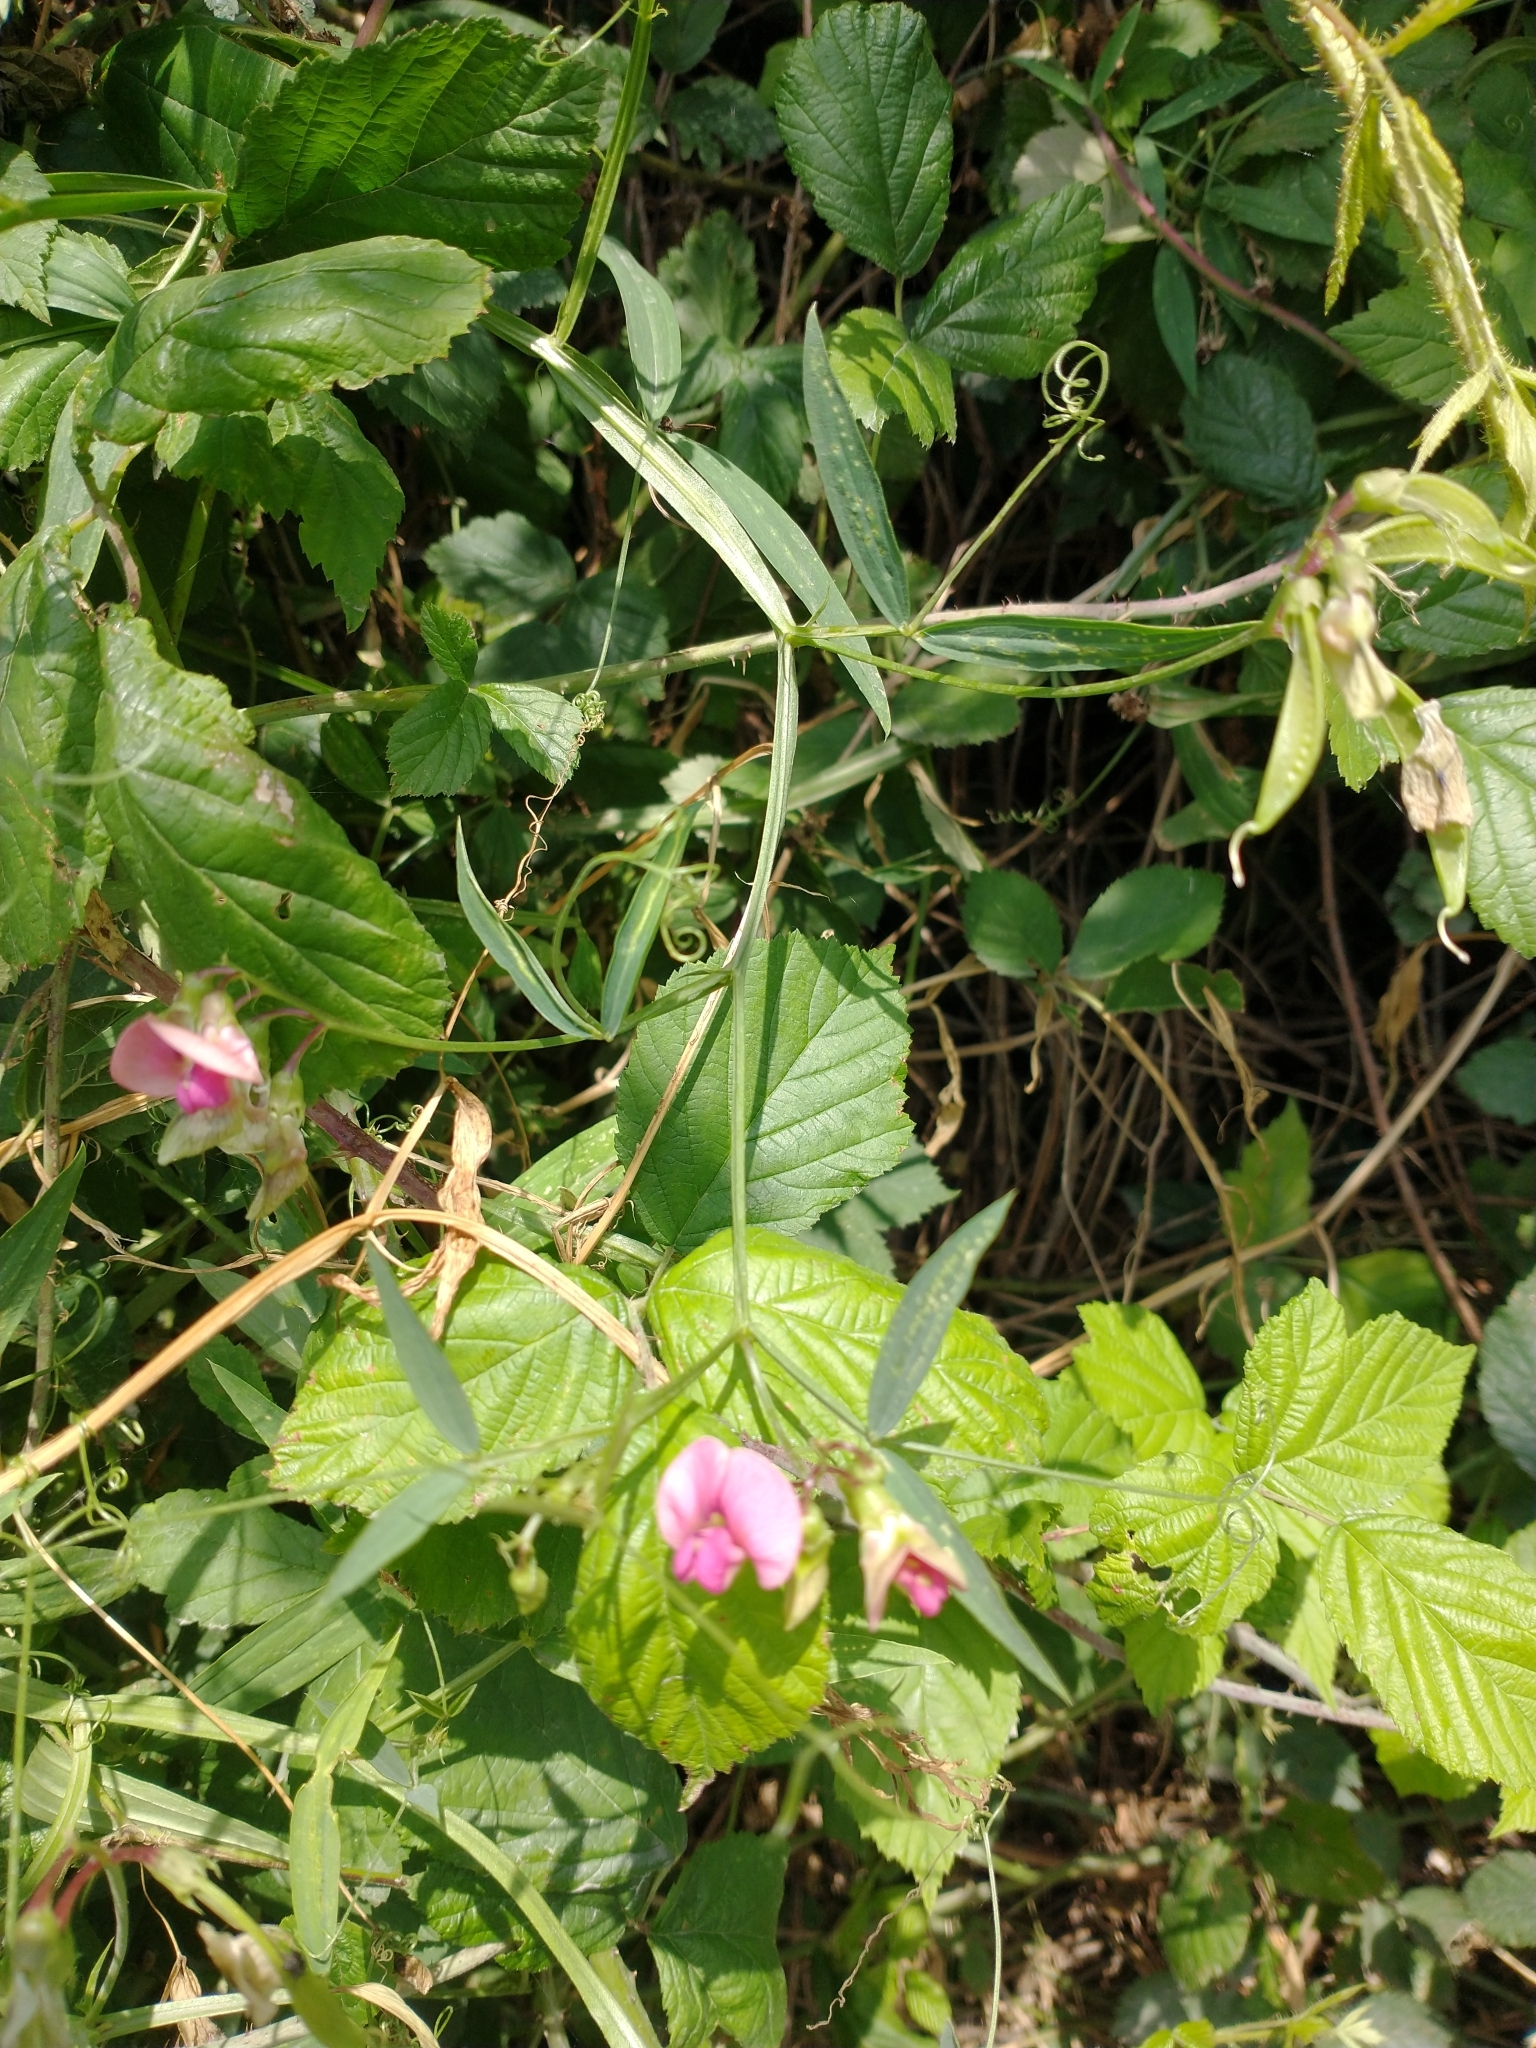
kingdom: Plantae
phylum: Tracheophyta
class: Magnoliopsida
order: Fabales
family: Fabaceae
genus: Lathyrus
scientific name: Lathyrus sylvestris
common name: Flat pea
